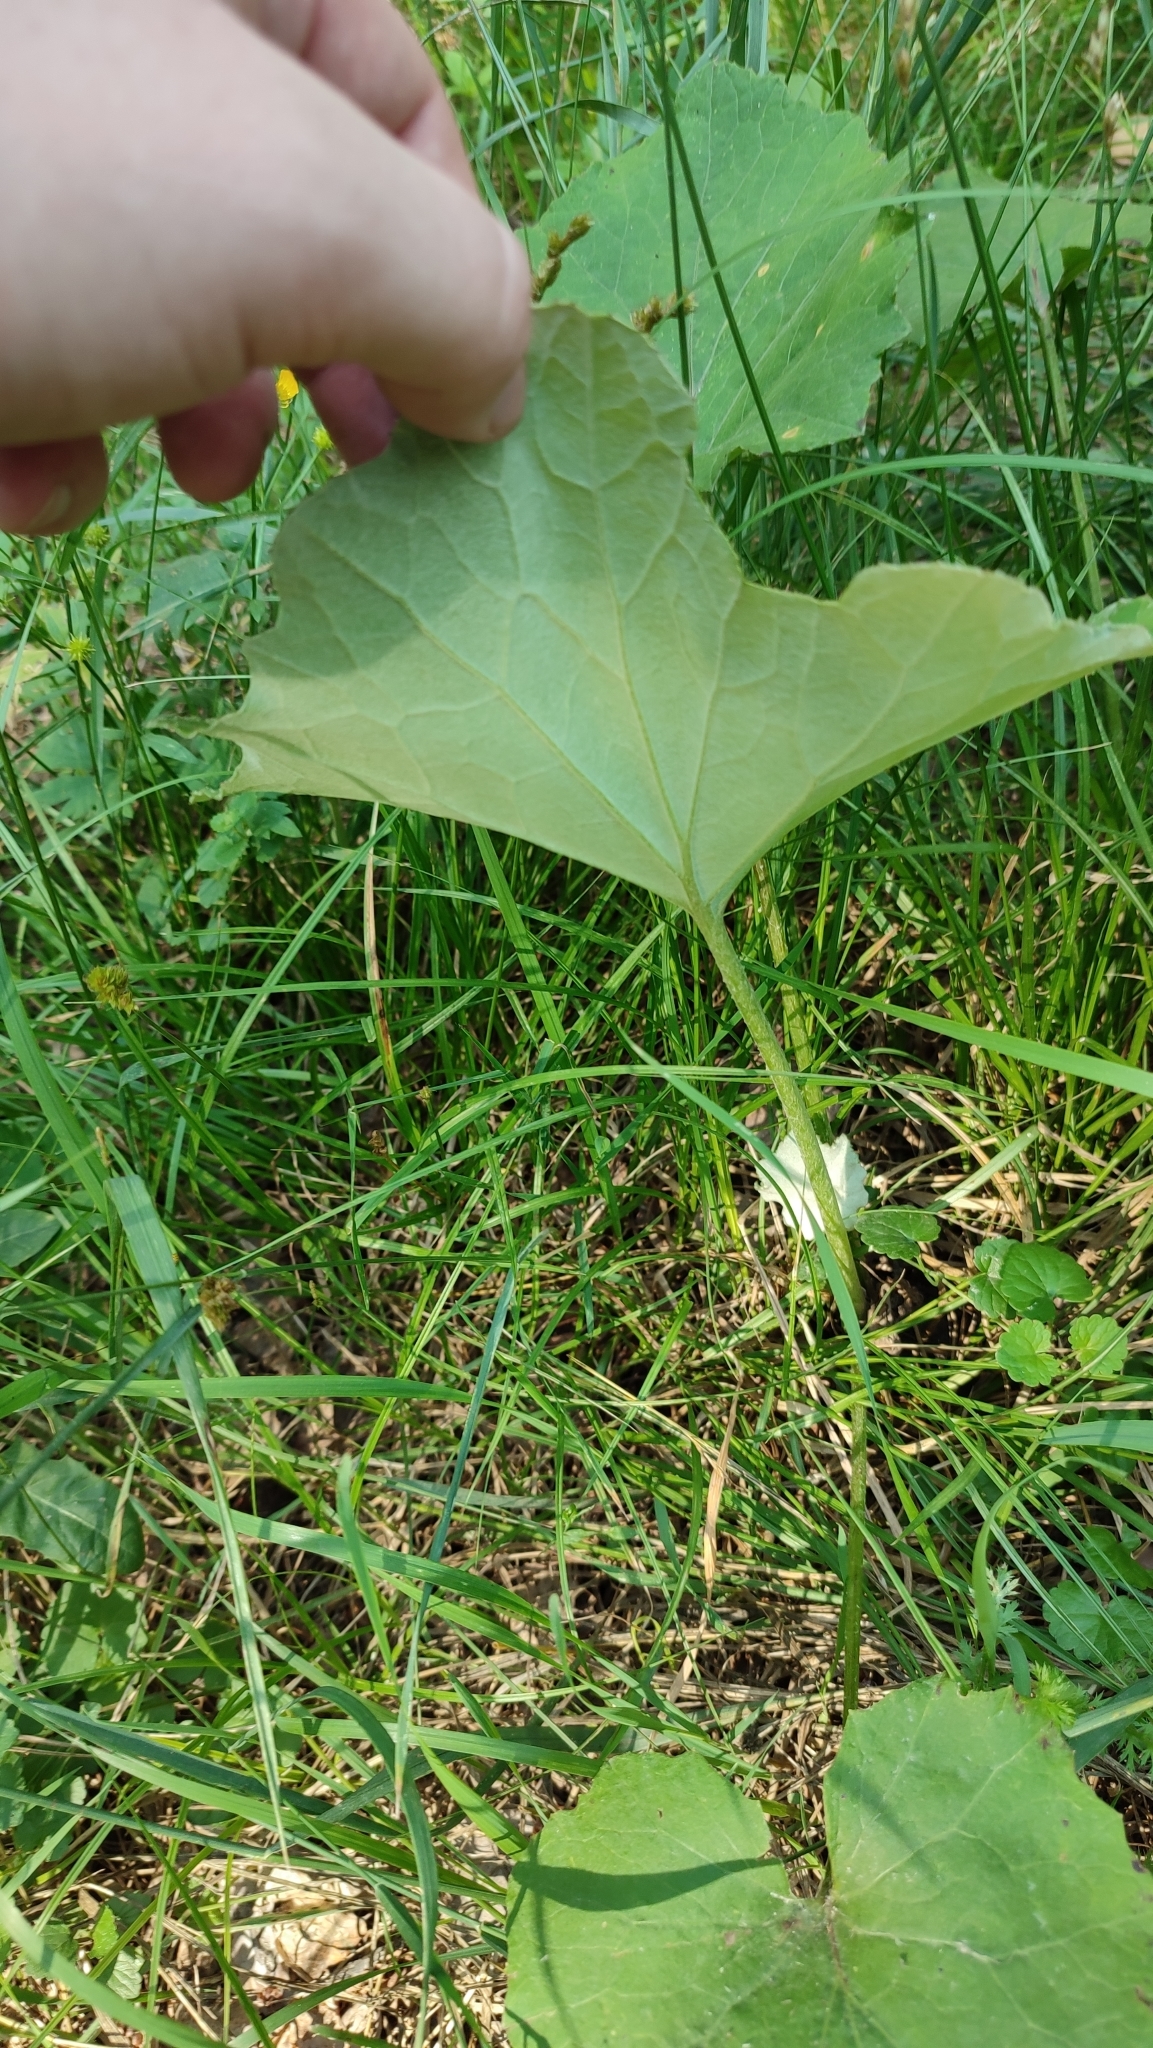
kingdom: Plantae
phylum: Tracheophyta
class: Magnoliopsida
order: Asterales
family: Asteraceae
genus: Tussilago
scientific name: Tussilago farfara
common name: Coltsfoot
